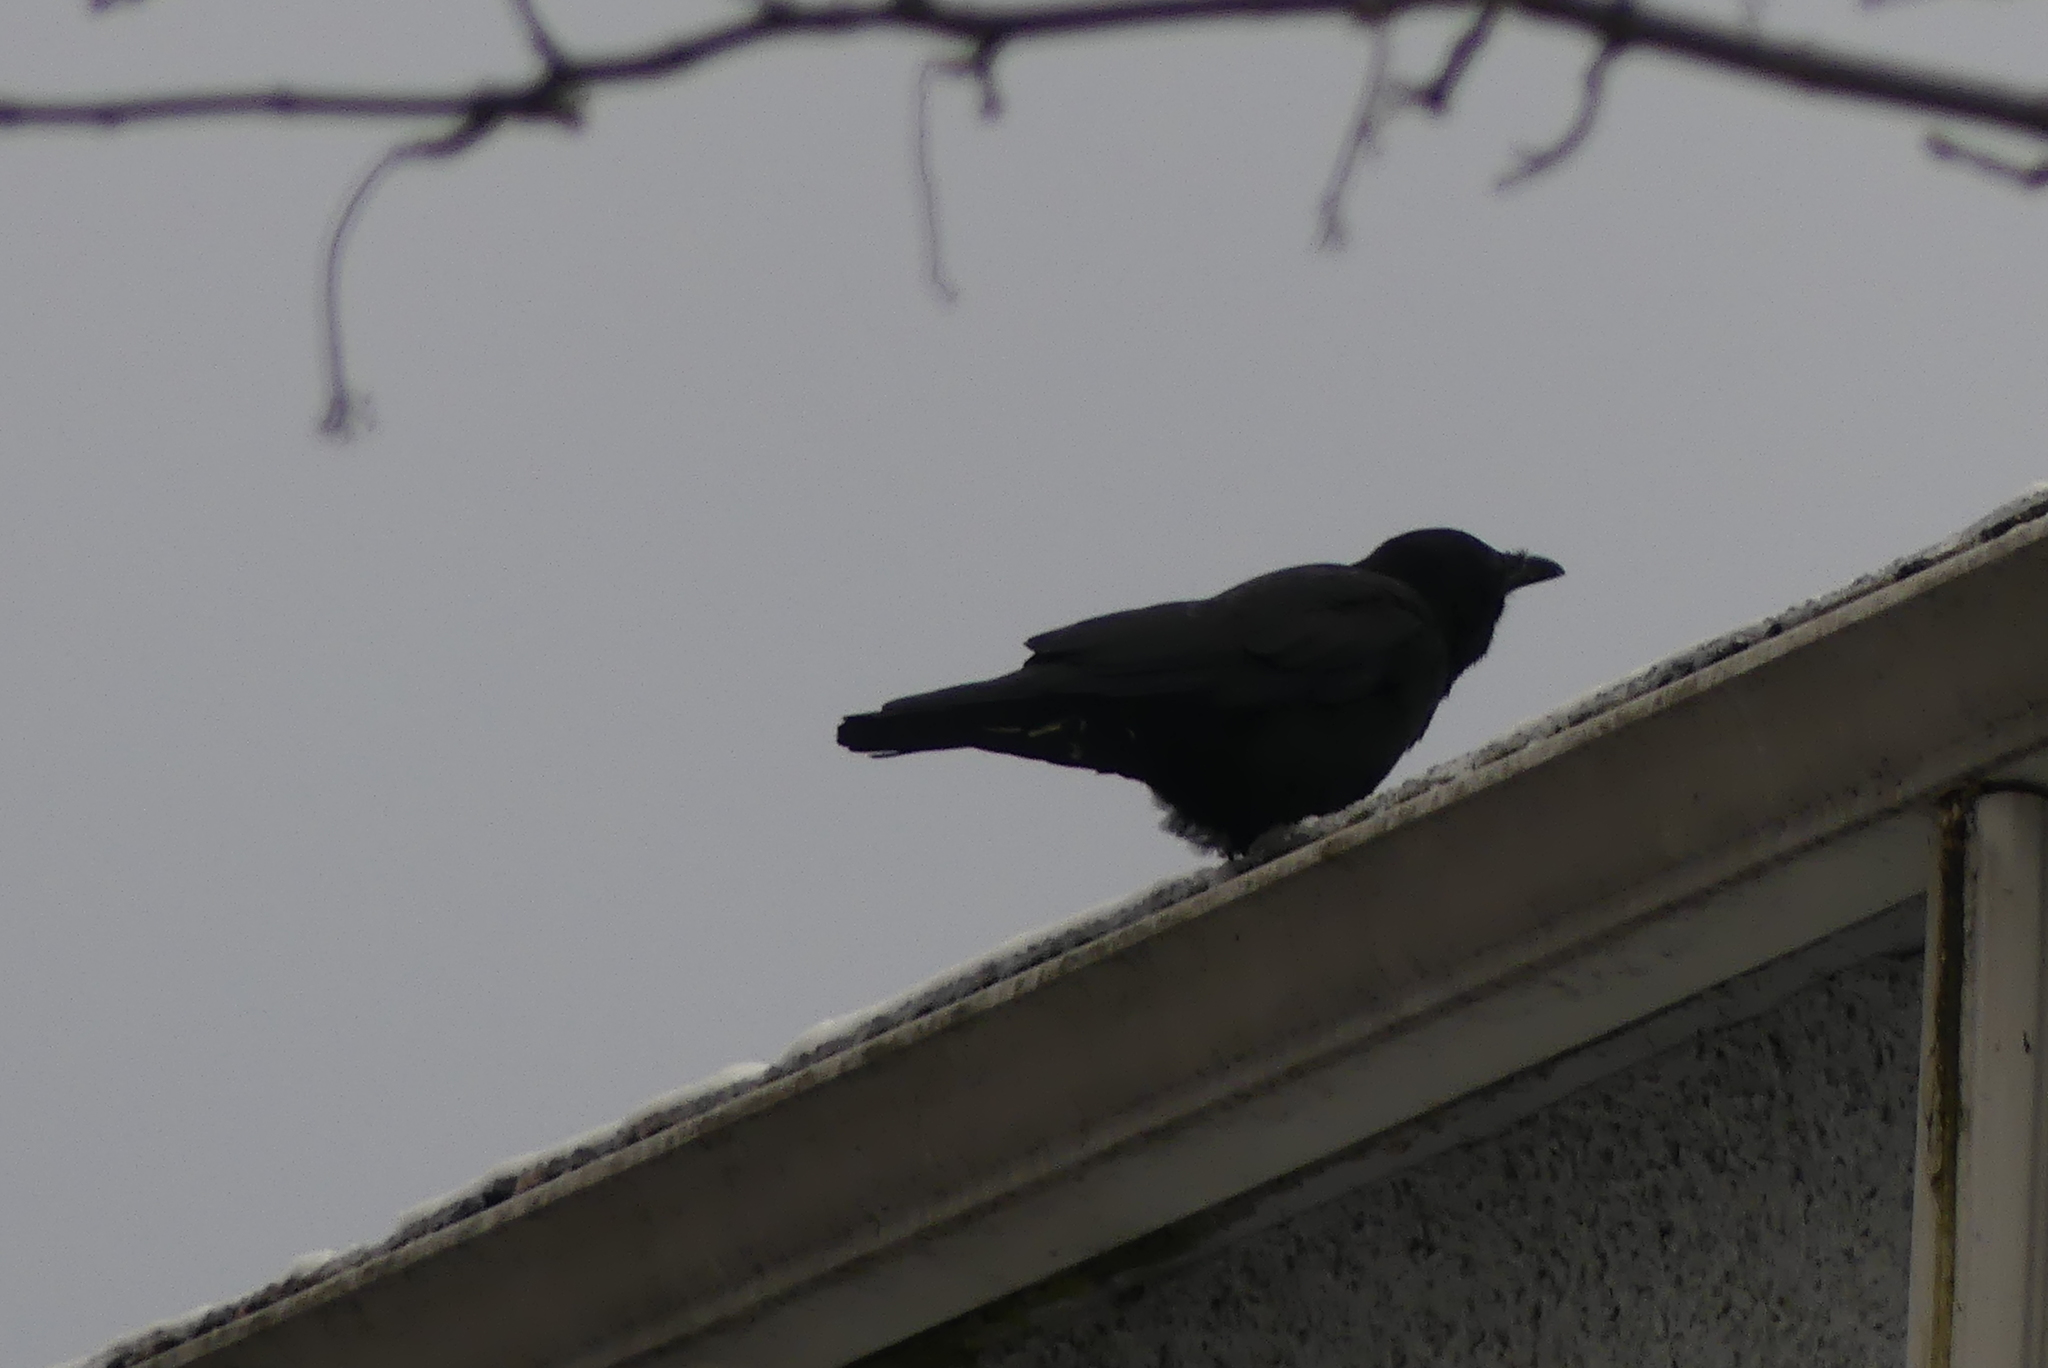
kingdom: Animalia
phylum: Chordata
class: Aves
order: Passeriformes
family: Corvidae
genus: Corvus
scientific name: Corvus brachyrhynchos
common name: American crow
